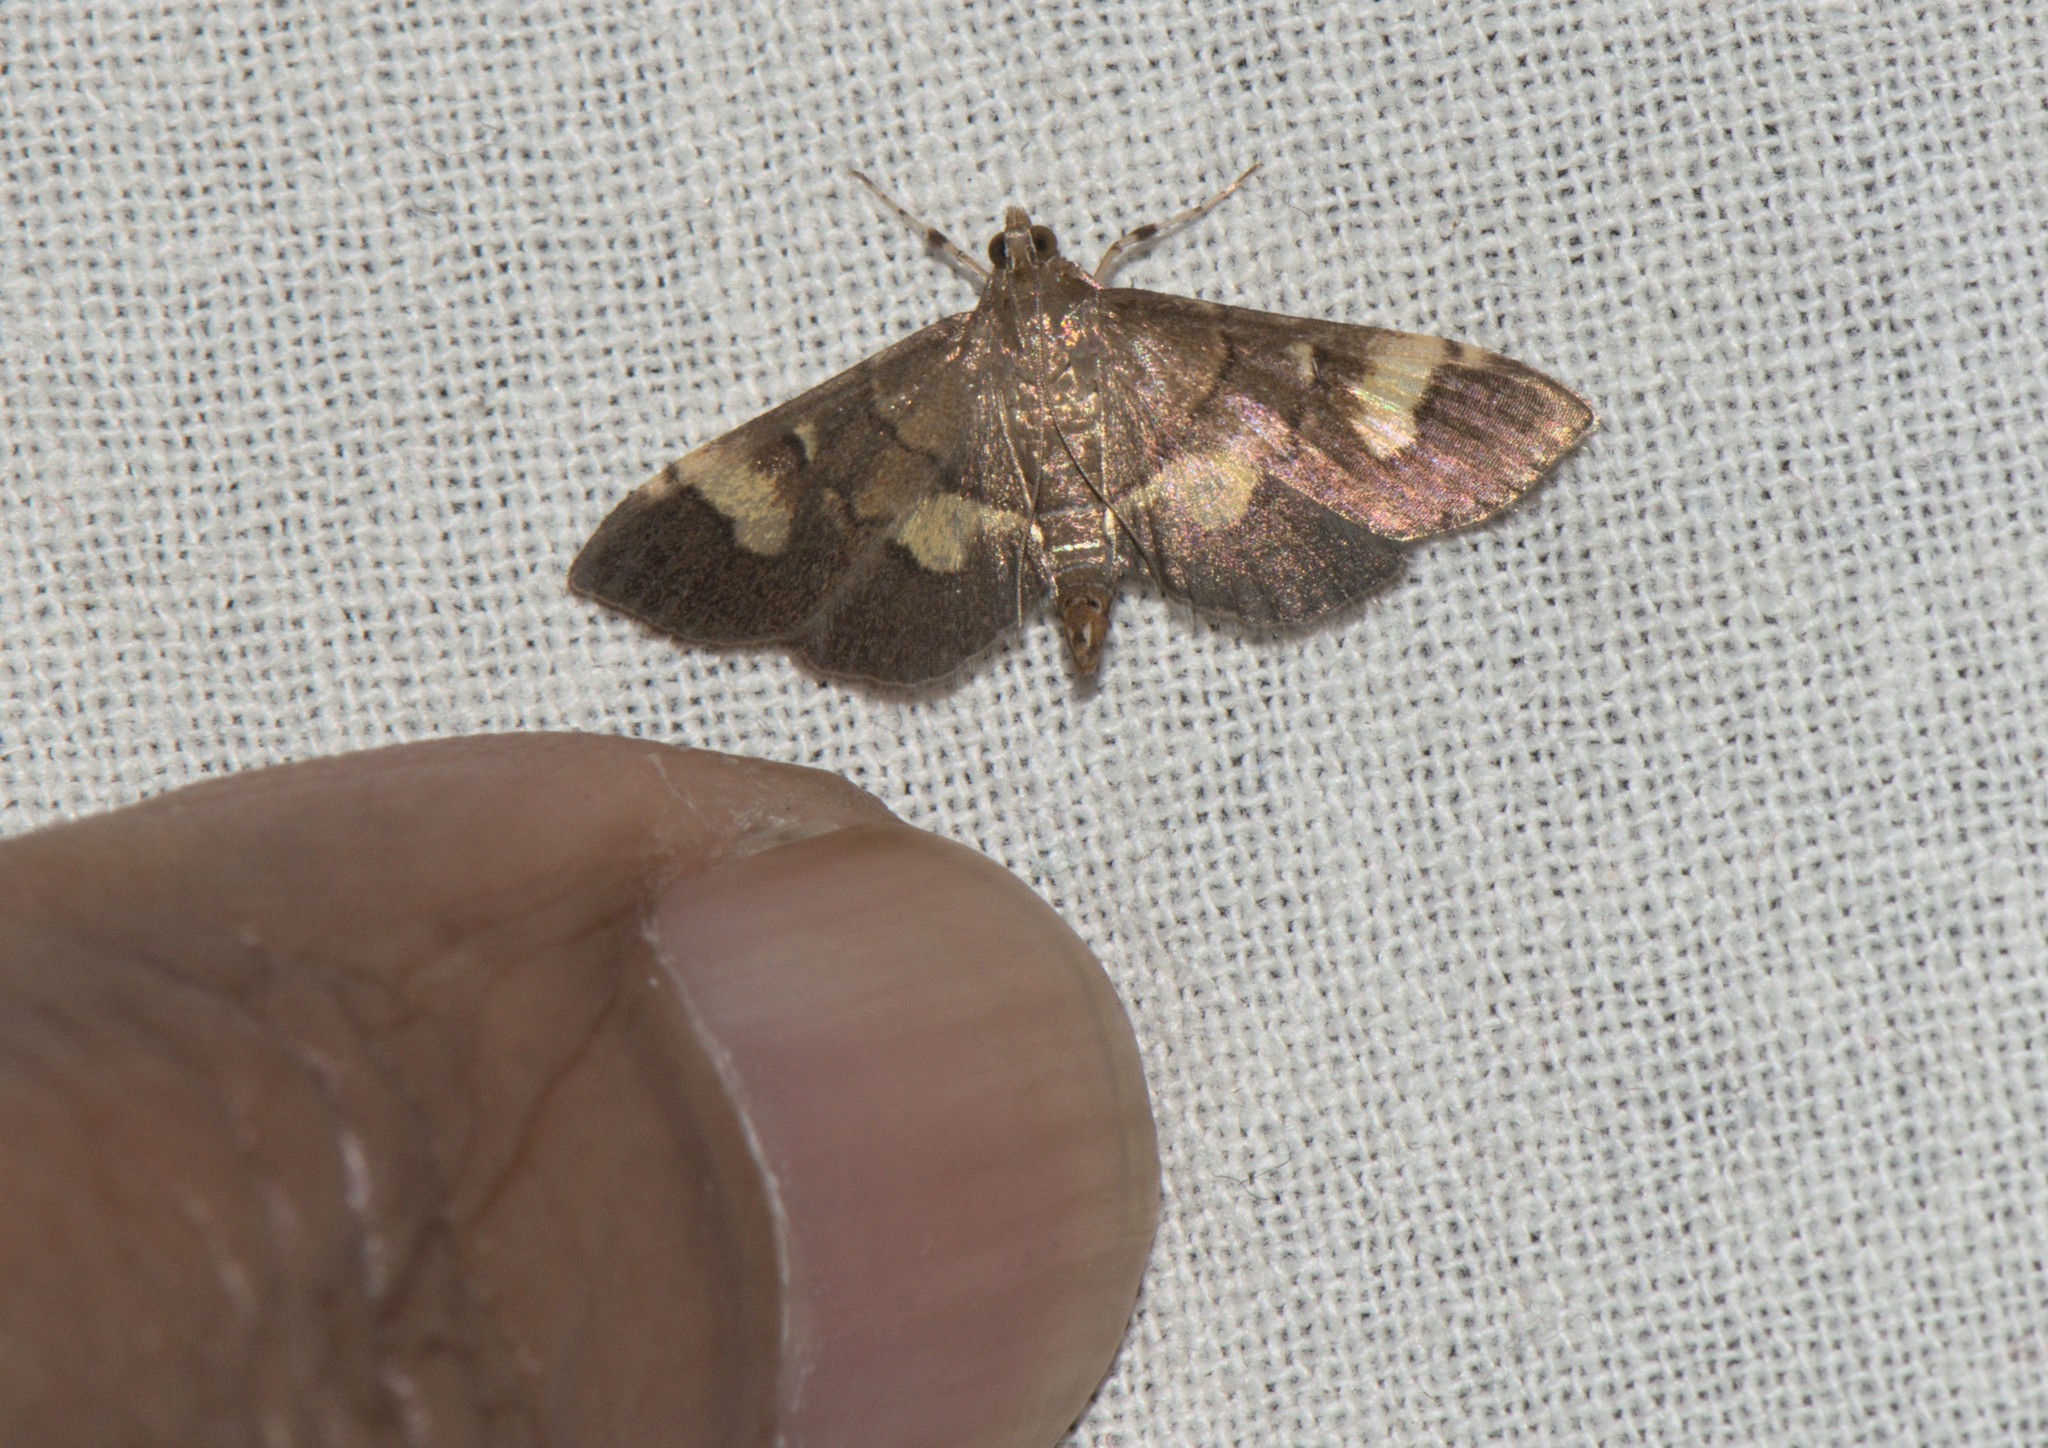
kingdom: Animalia
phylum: Arthropoda
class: Insecta
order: Lepidoptera
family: Crambidae
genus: Syngamia
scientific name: Syngamia falsidicalis
